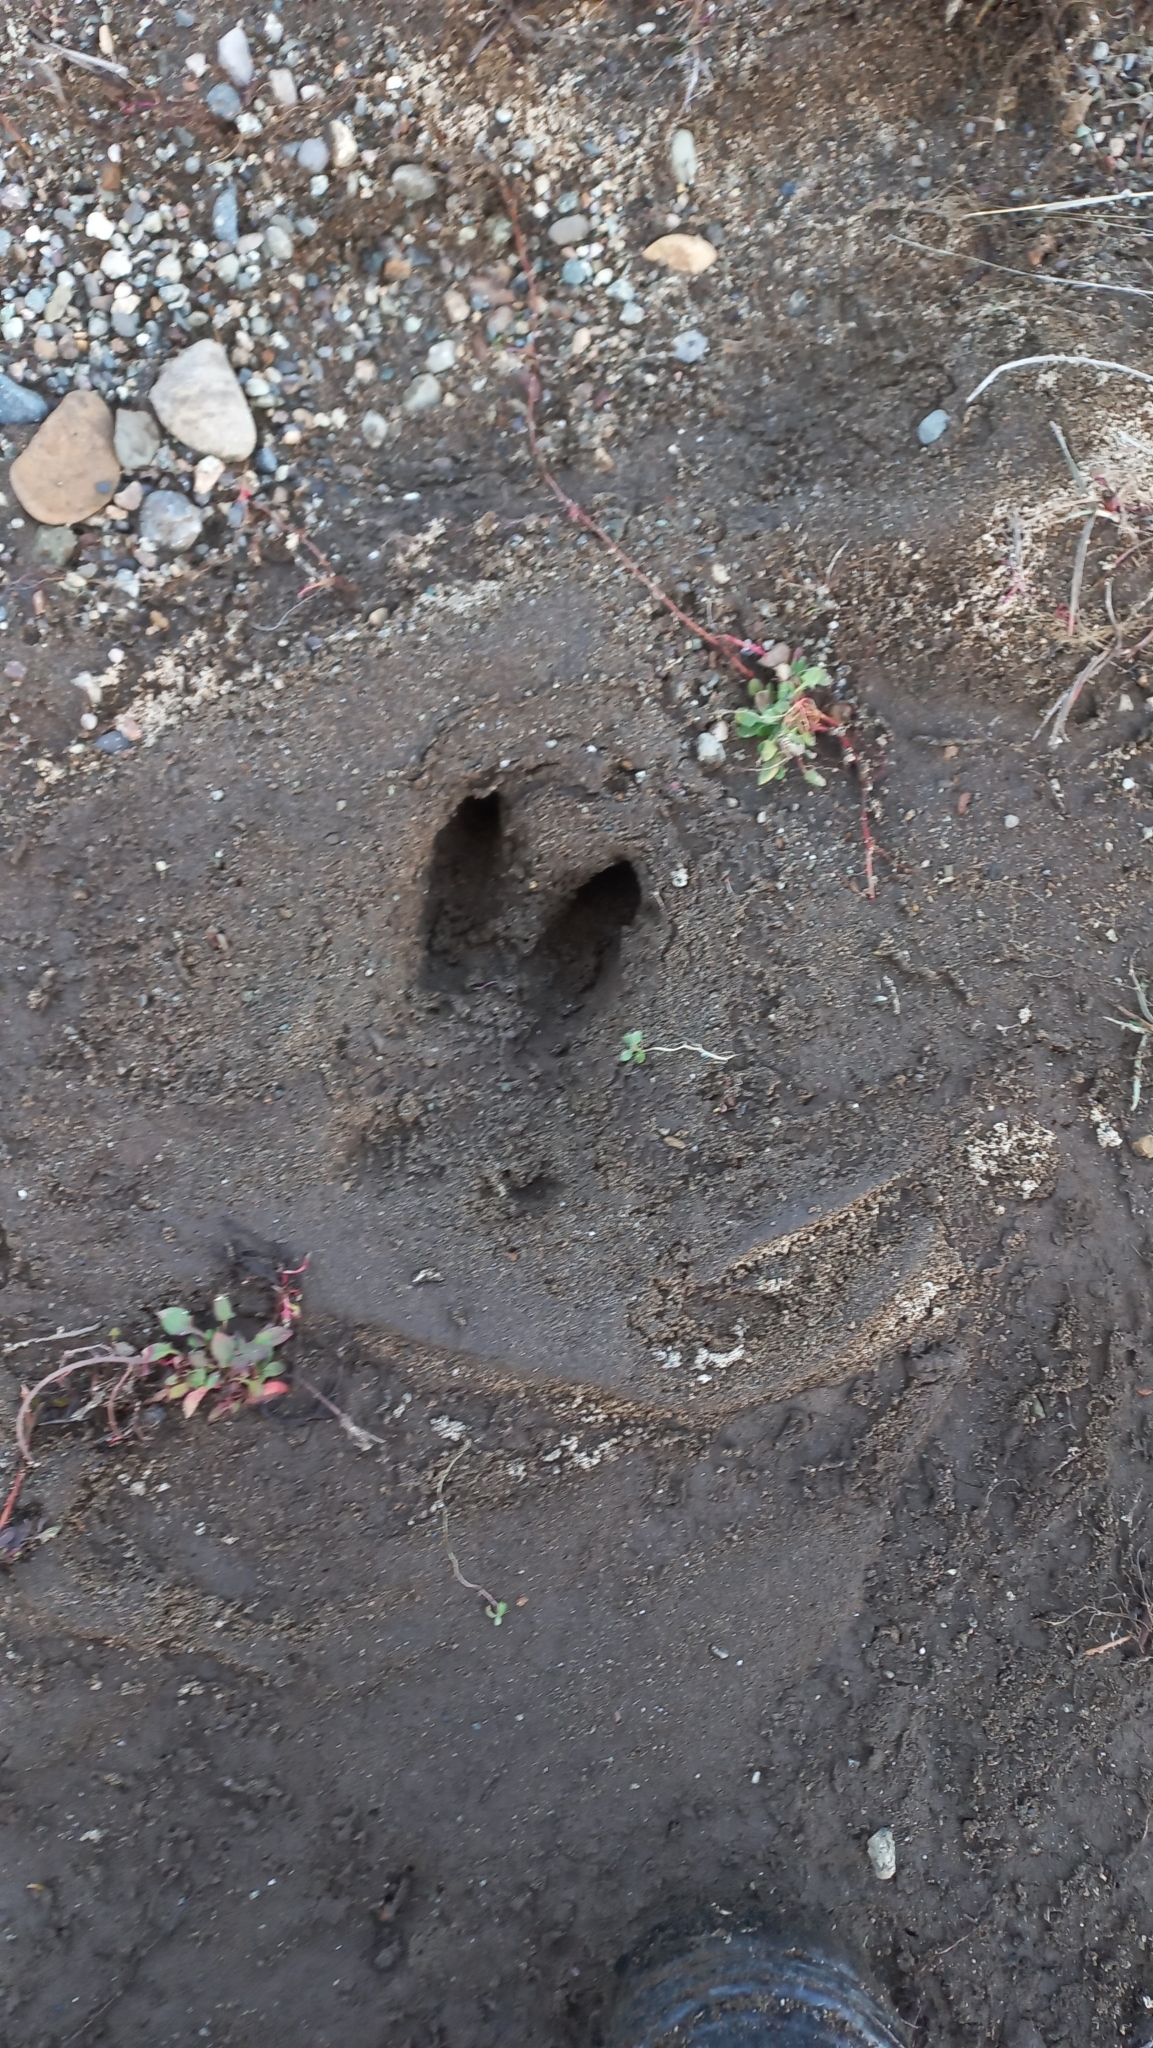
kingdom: Animalia
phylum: Chordata
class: Mammalia
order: Artiodactyla
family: Suidae
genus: Sus
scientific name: Sus scrofa
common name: Wild boar
